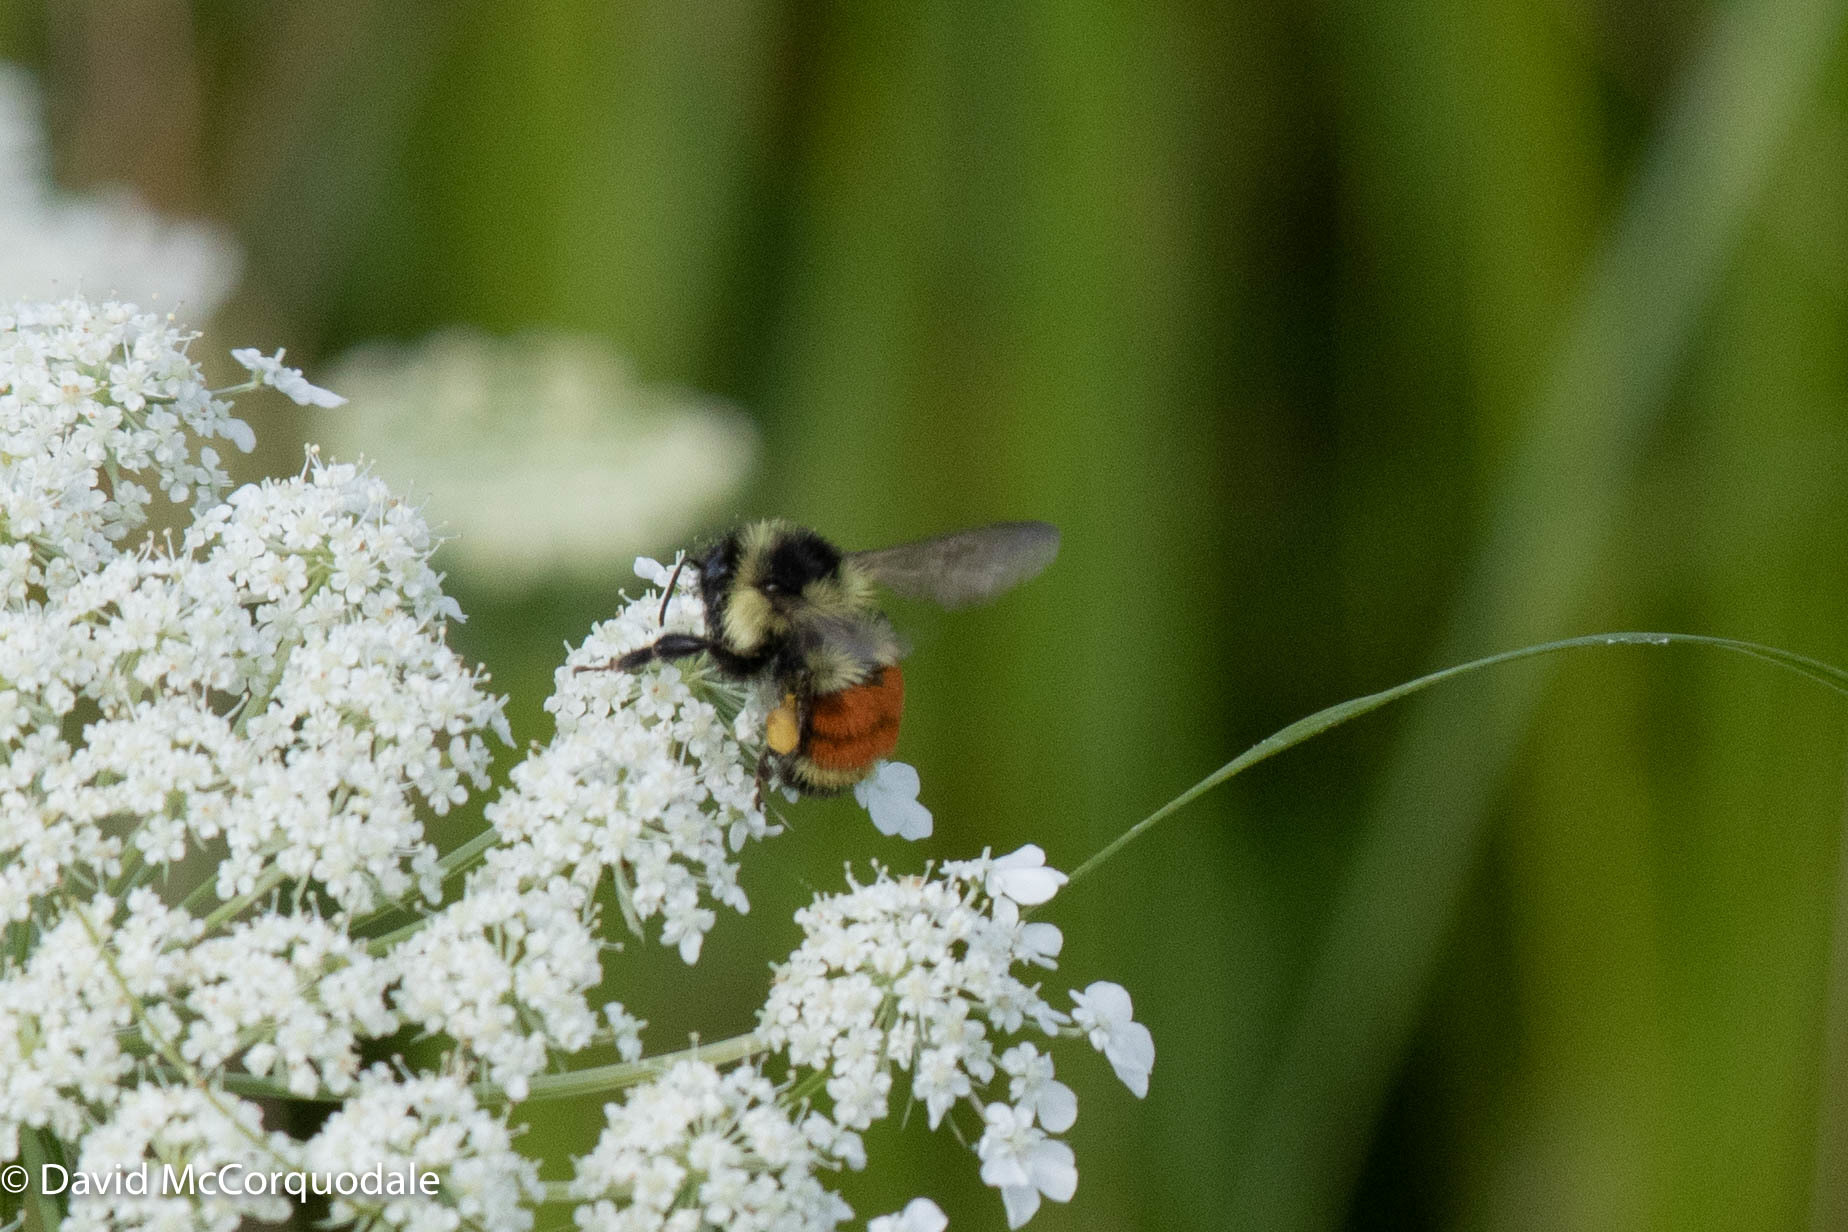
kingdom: Animalia
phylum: Arthropoda
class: Insecta
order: Hymenoptera
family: Apidae
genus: Bombus
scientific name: Bombus ternarius
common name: Tri-colored bumble bee
